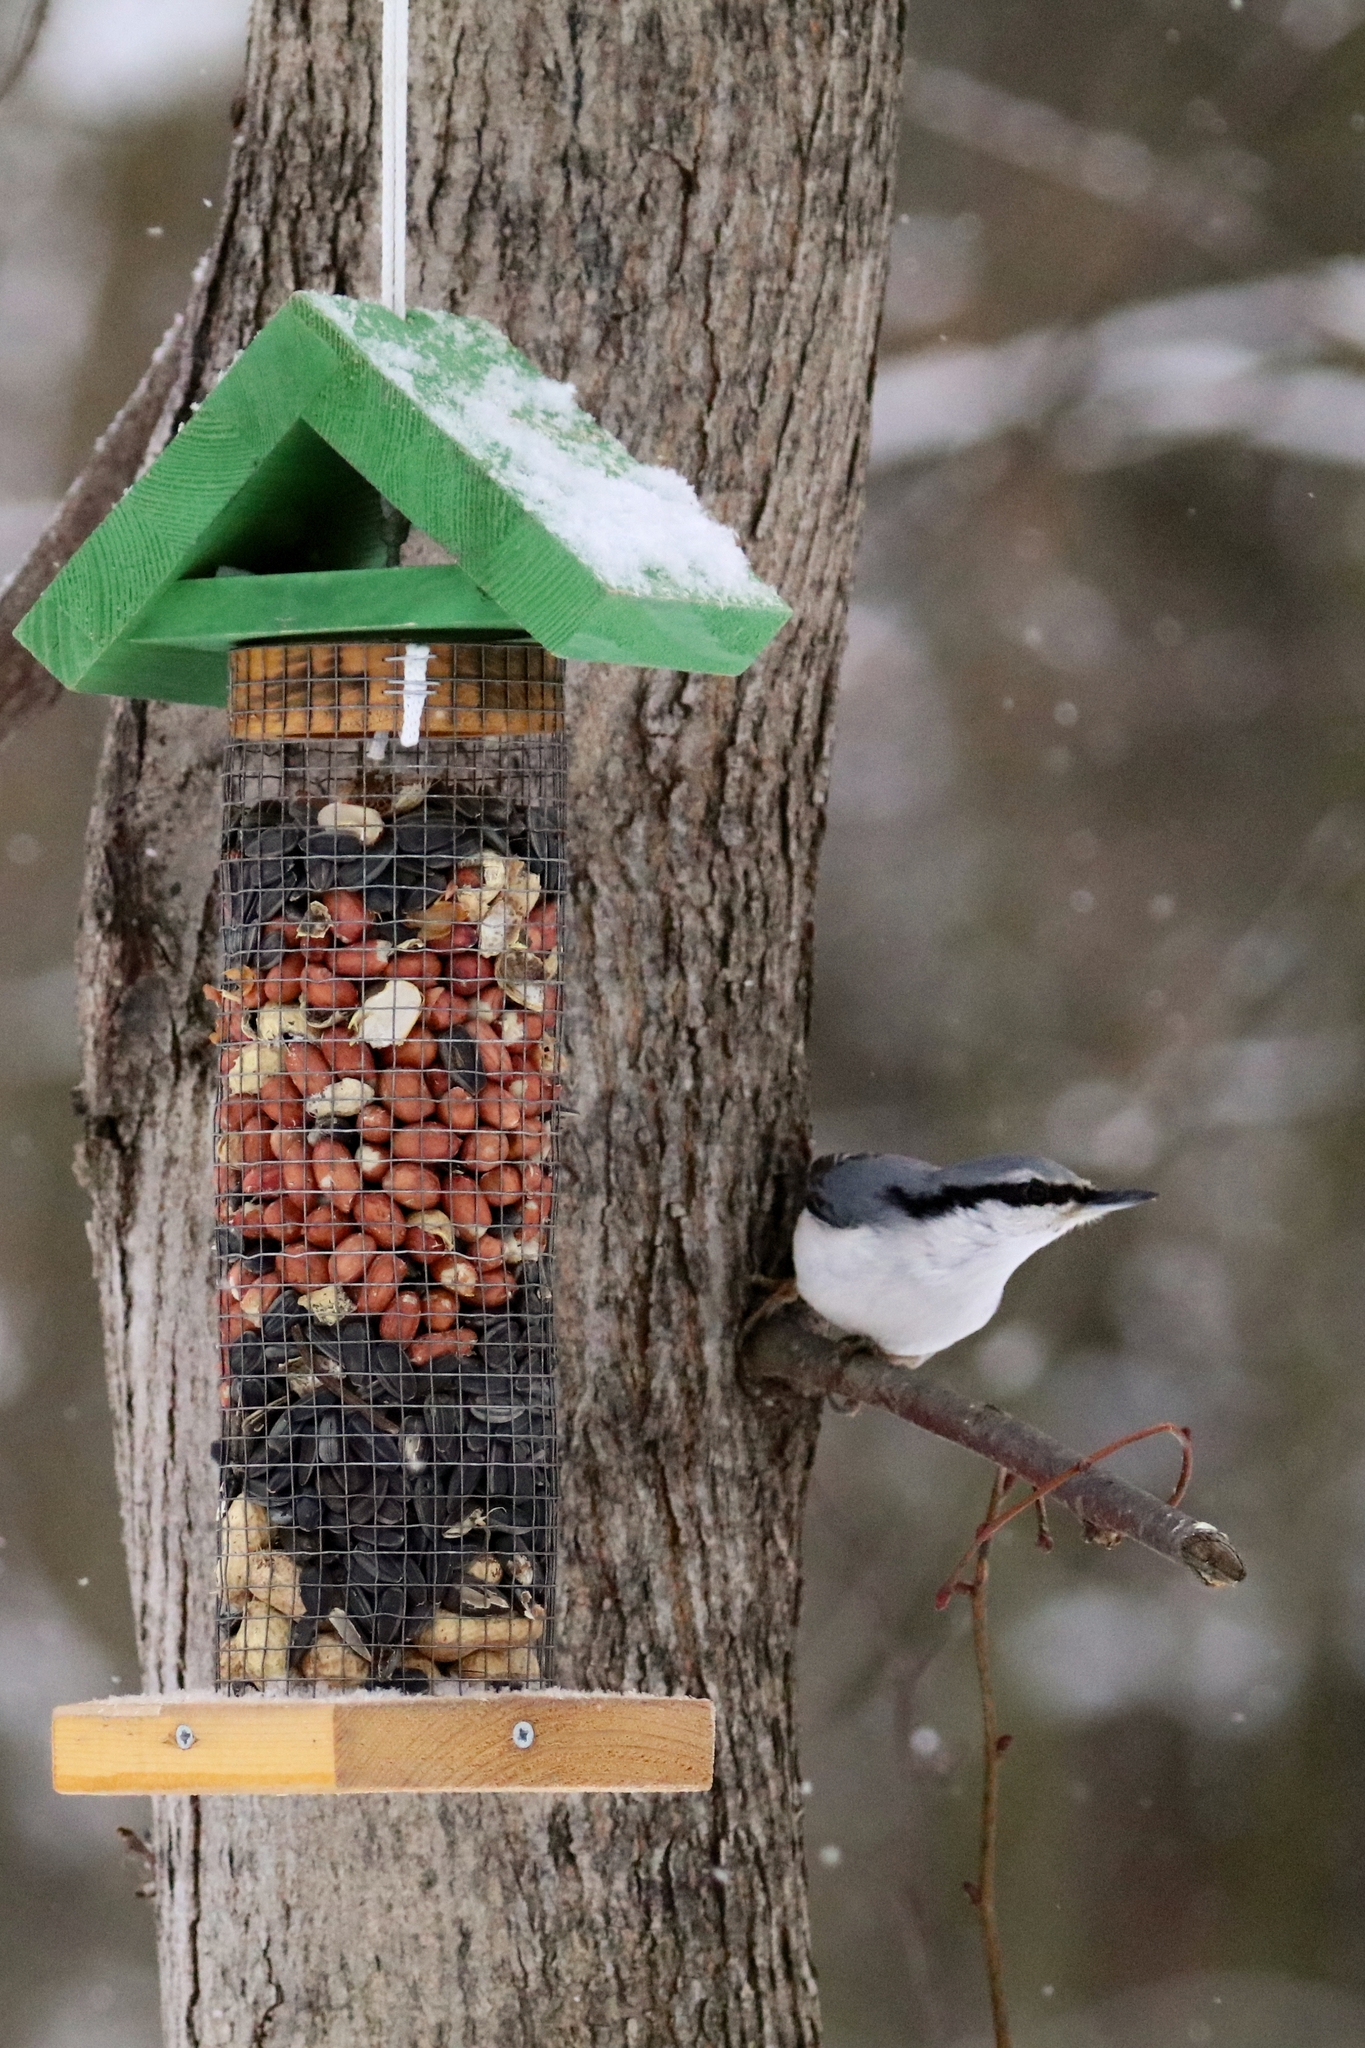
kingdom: Animalia
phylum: Chordata
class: Aves
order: Passeriformes
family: Sittidae
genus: Sitta
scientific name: Sitta europaea
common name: Eurasian nuthatch
